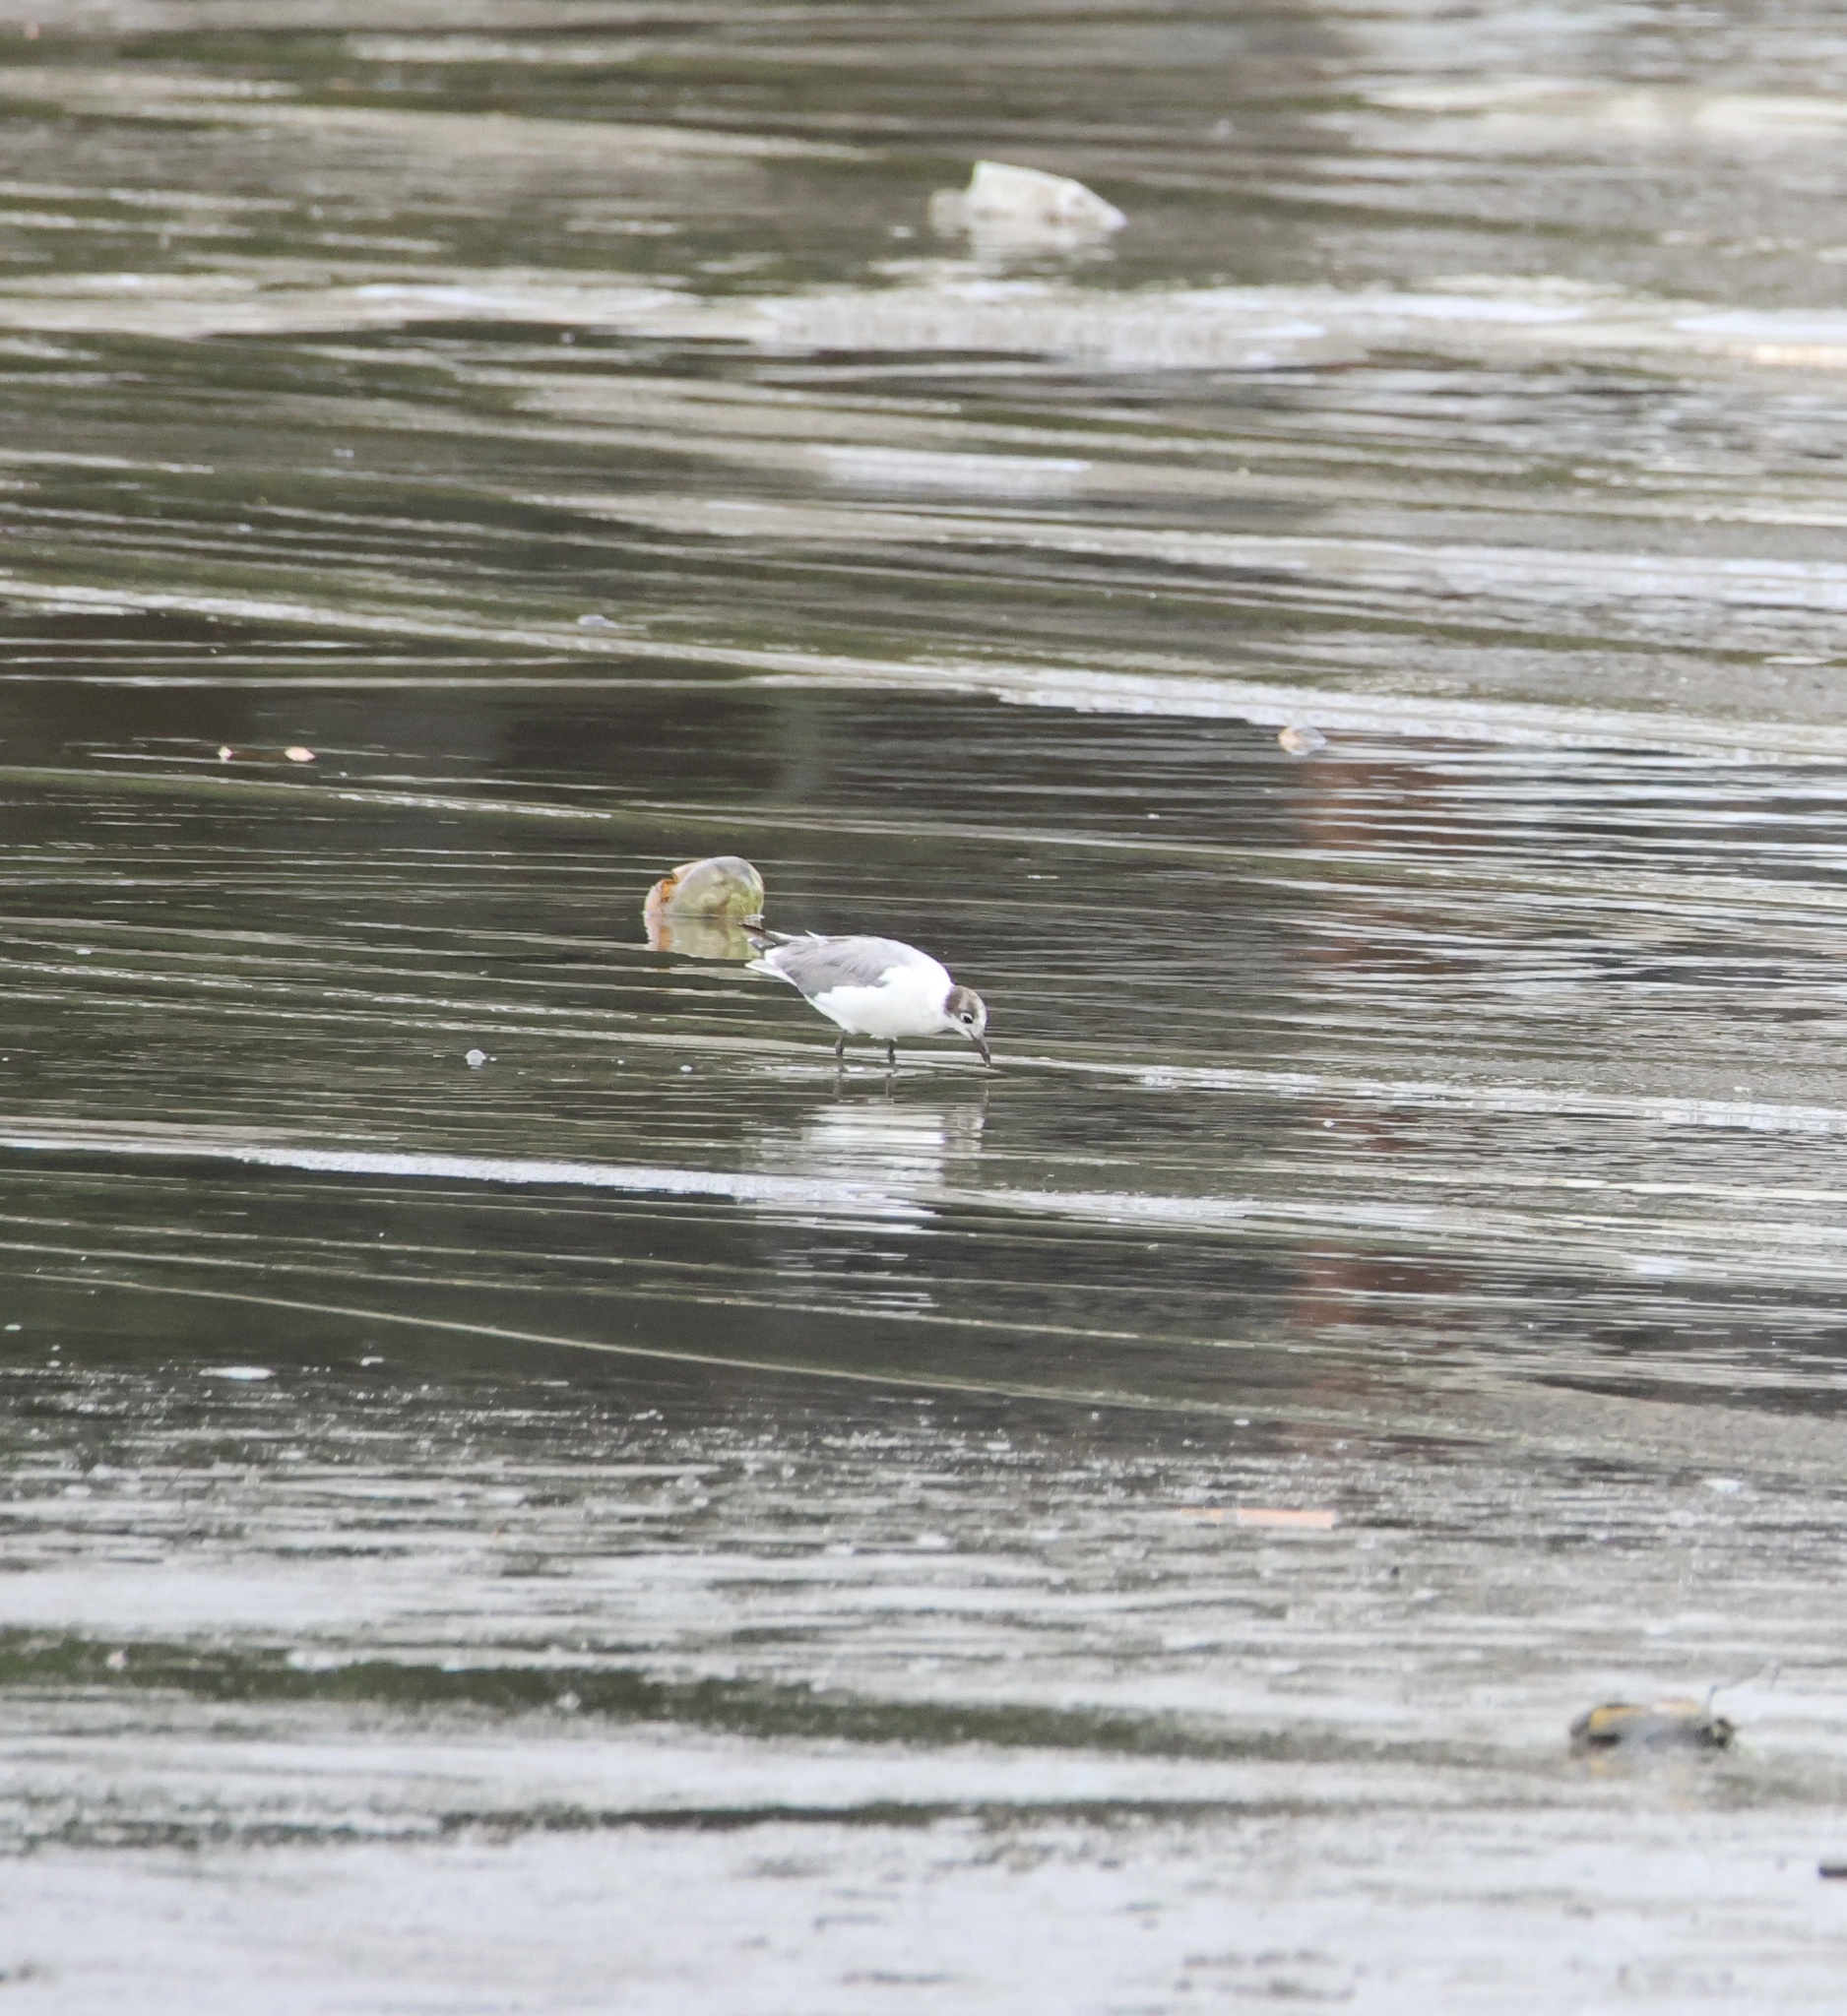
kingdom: Animalia
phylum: Chordata
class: Aves
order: Charadriiformes
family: Laridae
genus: Leucophaeus
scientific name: Leucophaeus pipixcan
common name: Franklin's gull
